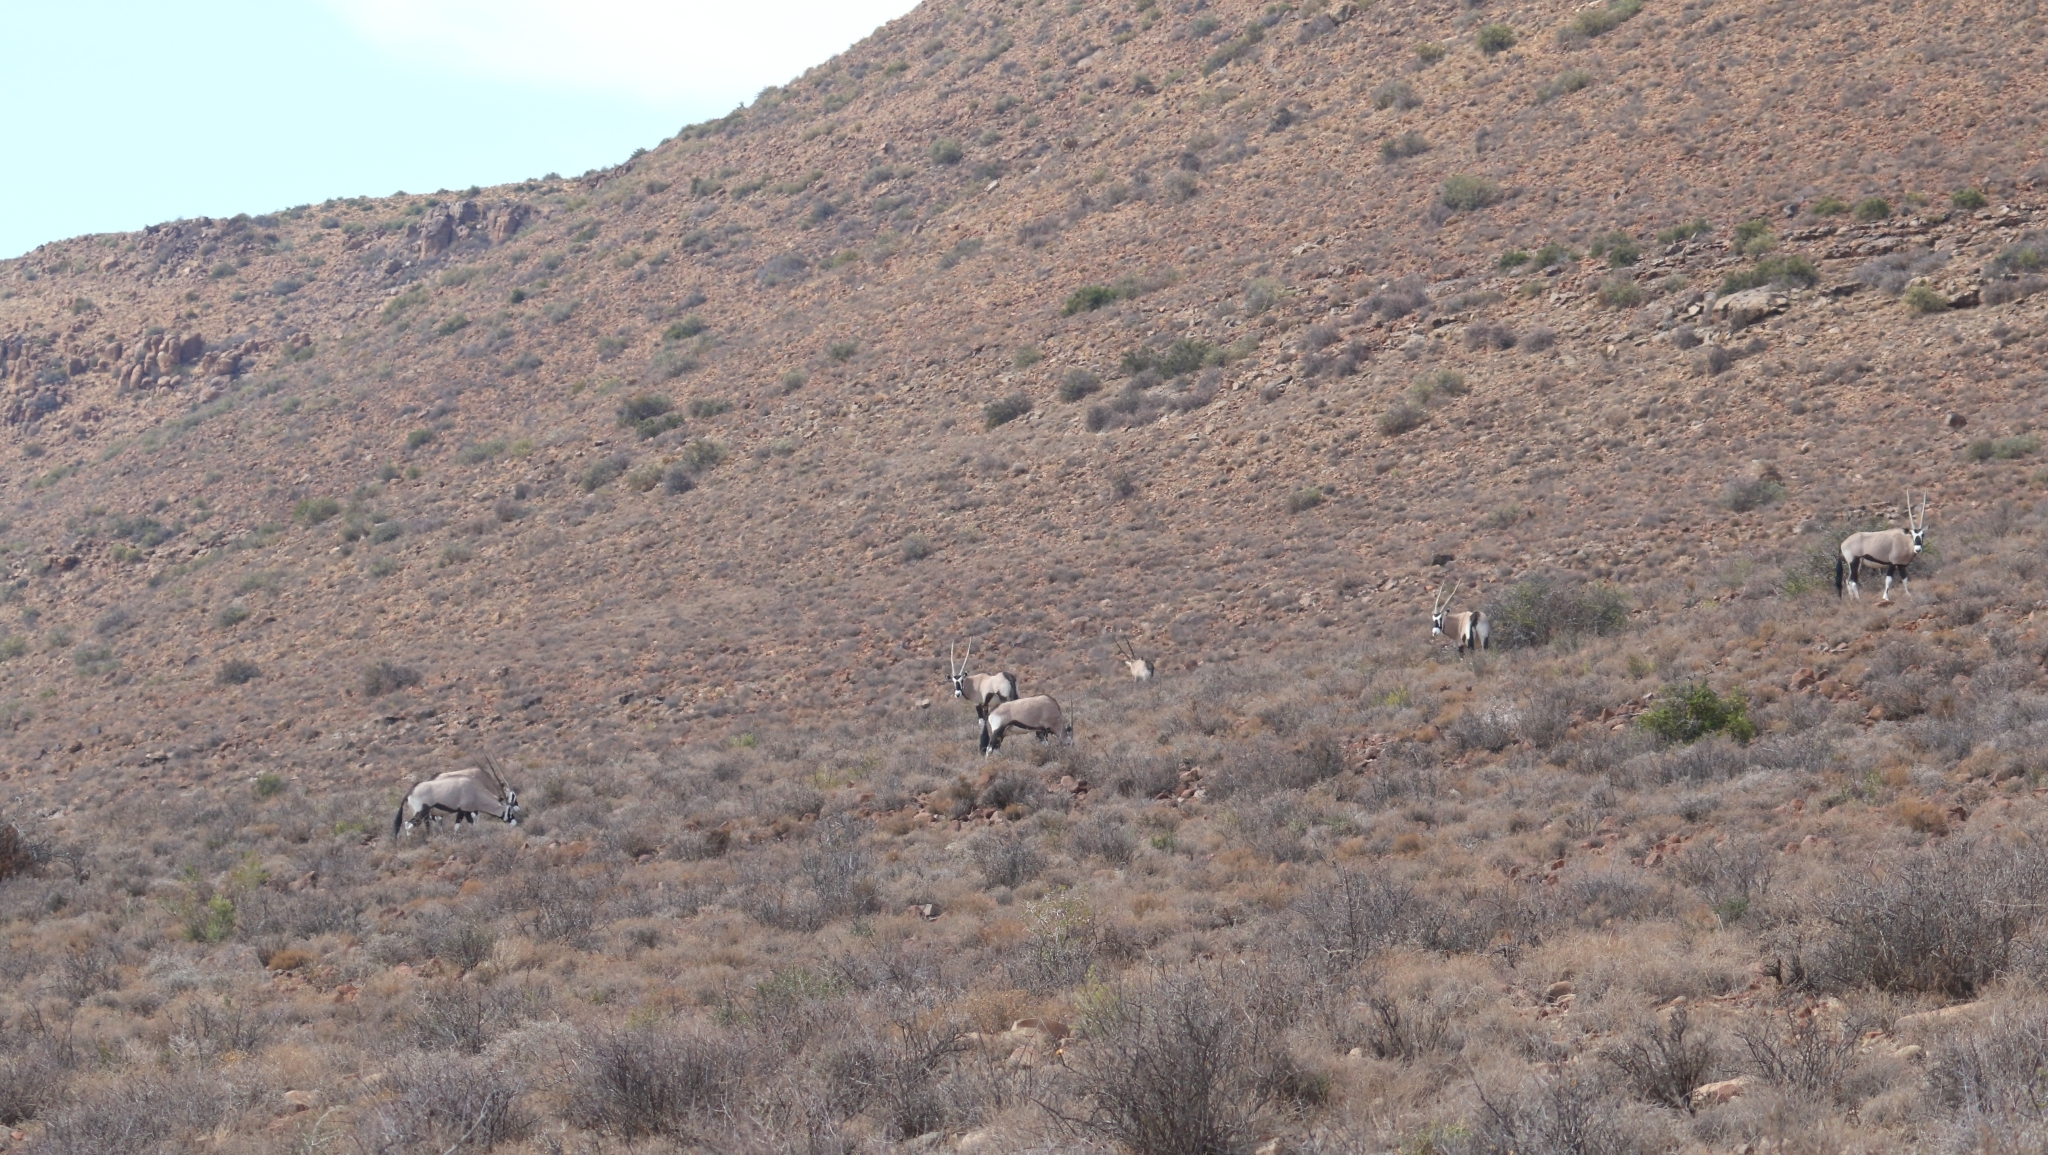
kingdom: Animalia
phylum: Chordata
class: Mammalia
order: Artiodactyla
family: Bovidae
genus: Oryx
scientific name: Oryx gazella
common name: Gemsbok
